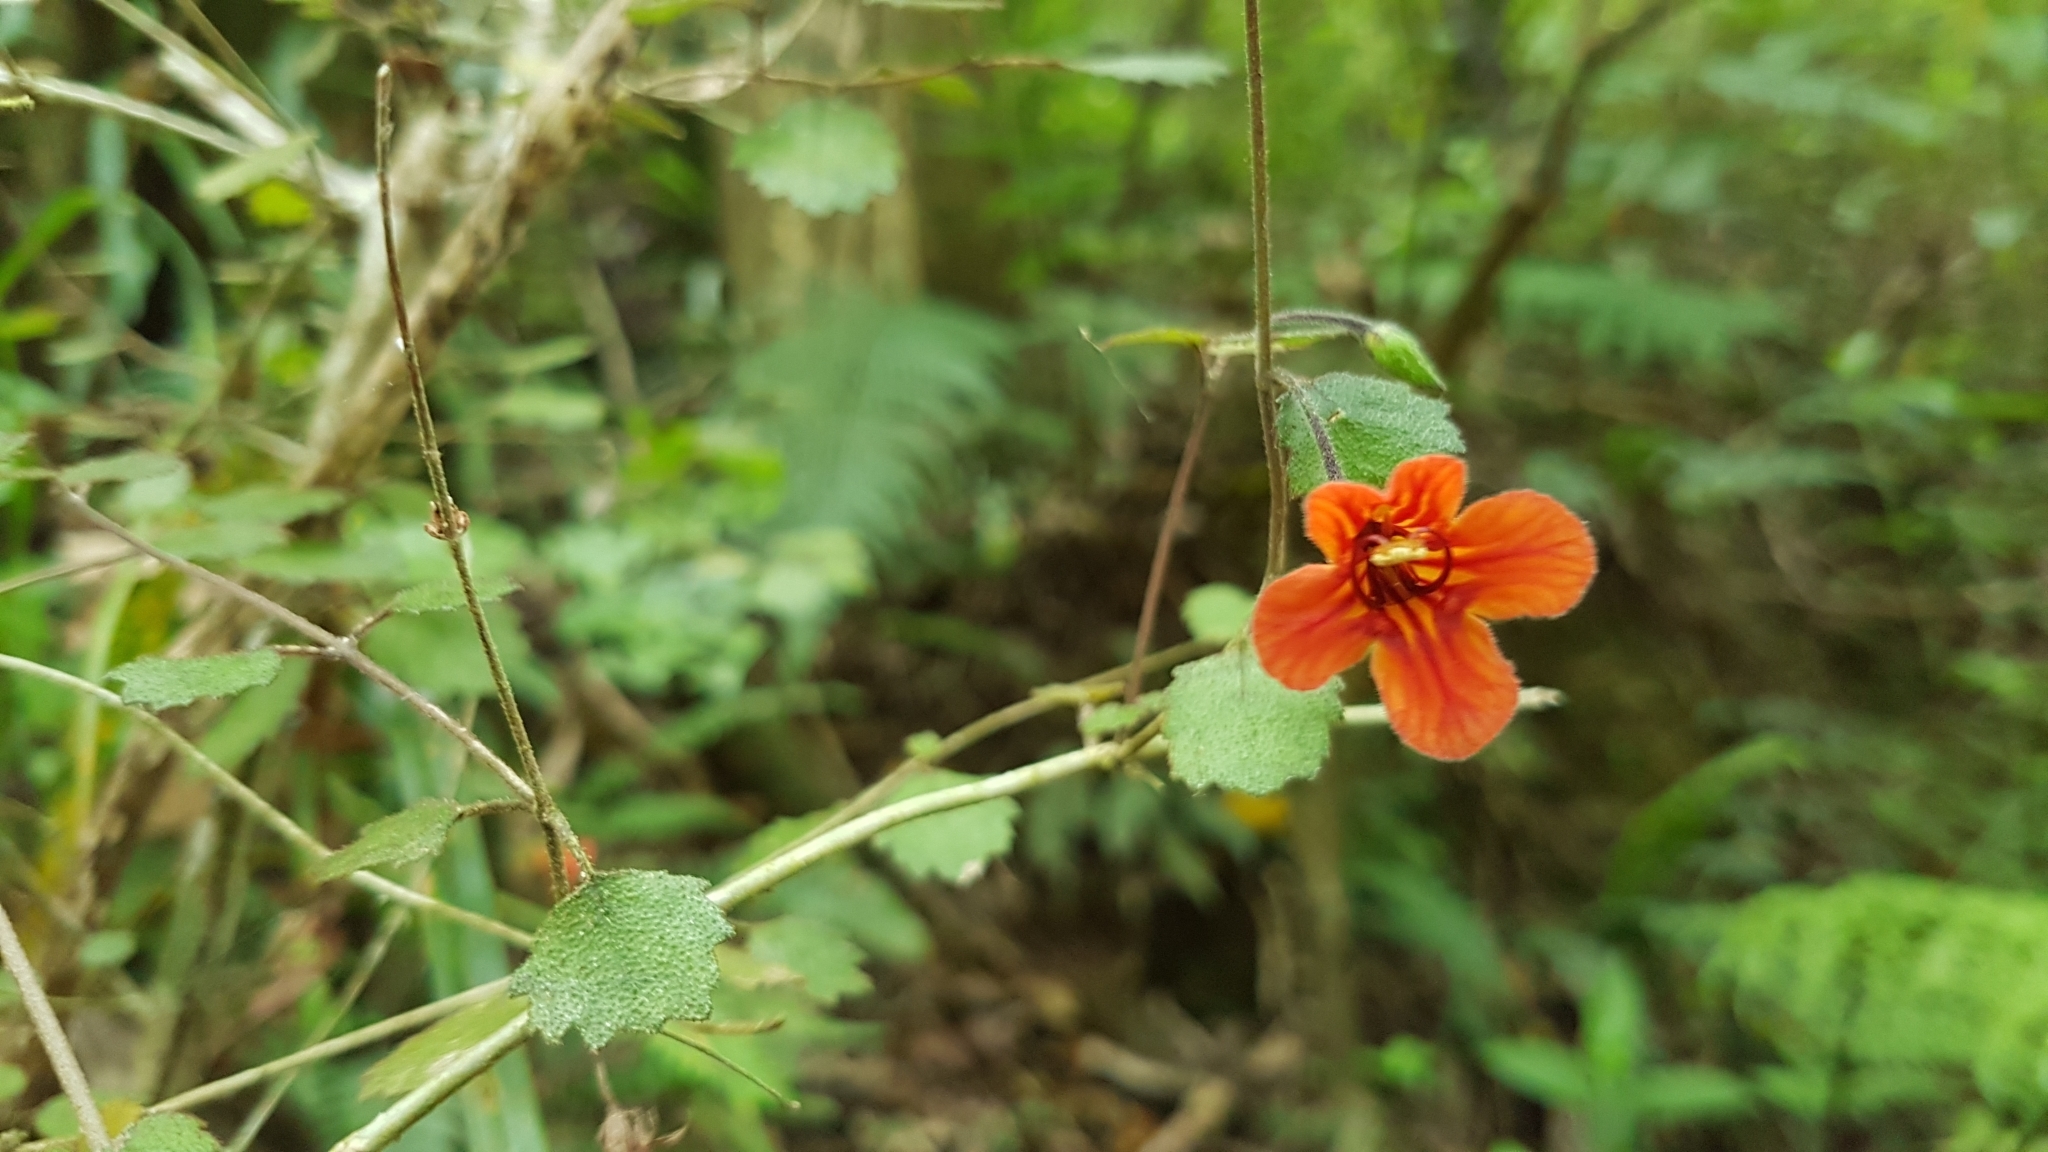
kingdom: Plantae
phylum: Tracheophyta
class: Magnoliopsida
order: Lamiales
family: Gesneriaceae
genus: Rhabdothamnus
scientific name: Rhabdothamnus solandri
